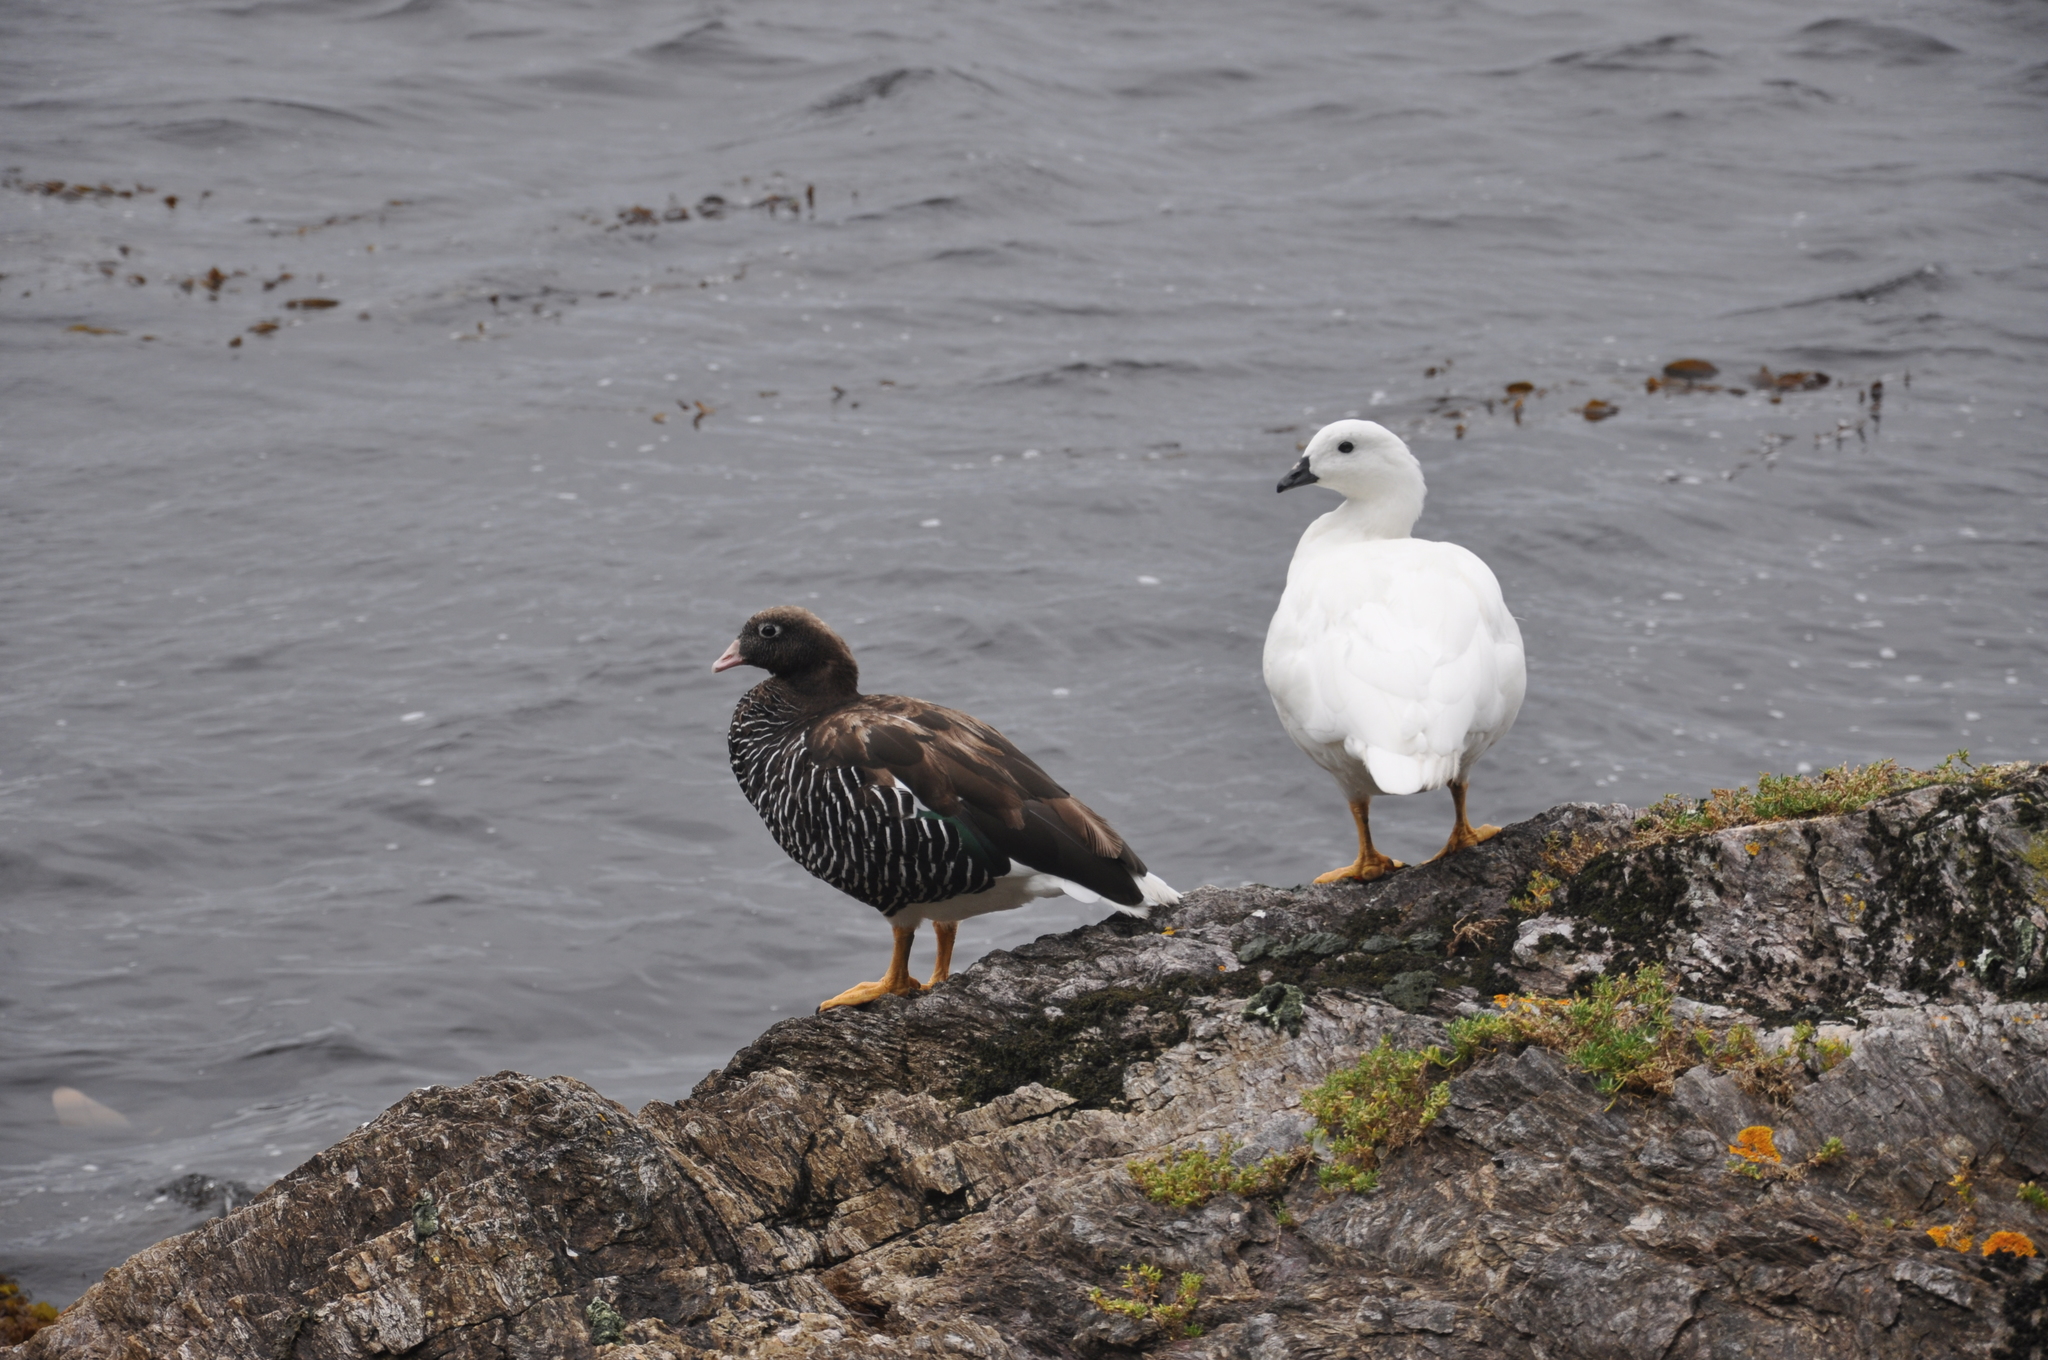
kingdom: Animalia
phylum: Chordata
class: Aves
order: Anseriformes
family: Anatidae
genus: Chloephaga
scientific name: Chloephaga hybrida
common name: Kelp goose
